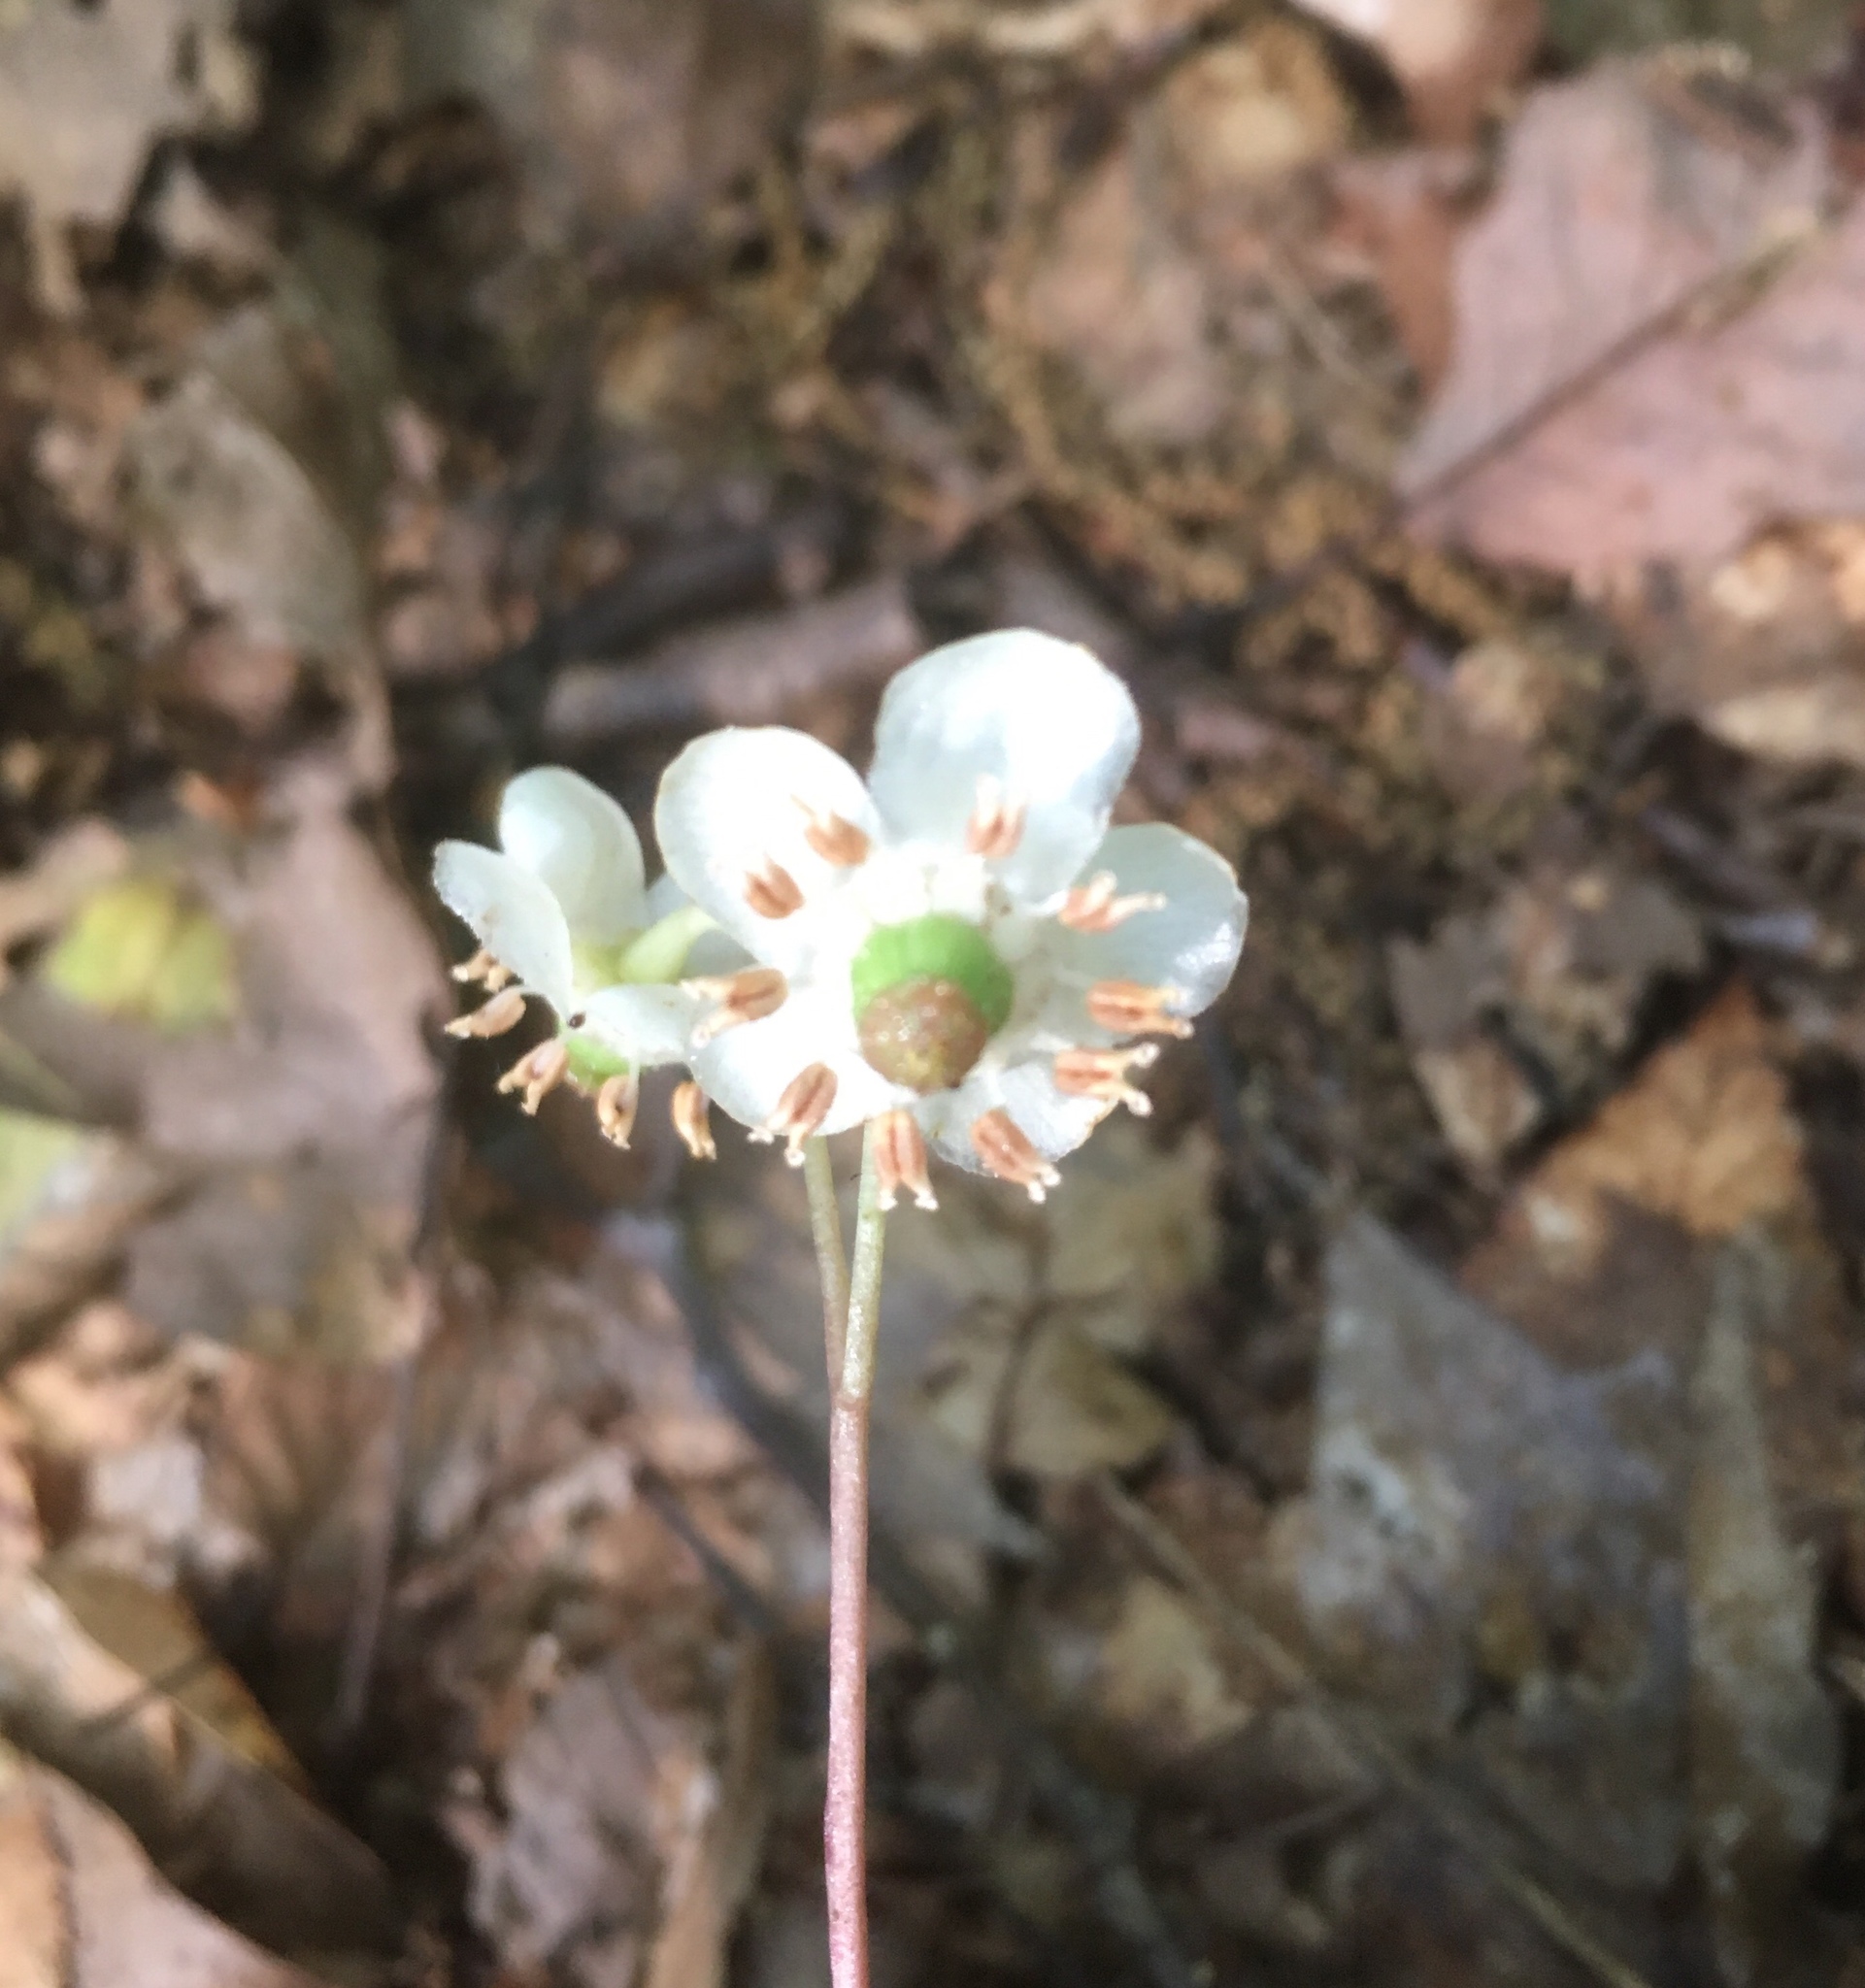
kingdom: Plantae
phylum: Tracheophyta
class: Magnoliopsida
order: Ericales
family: Ericaceae
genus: Chimaphila
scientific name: Chimaphila maculata
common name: Spotted pipsissewa
